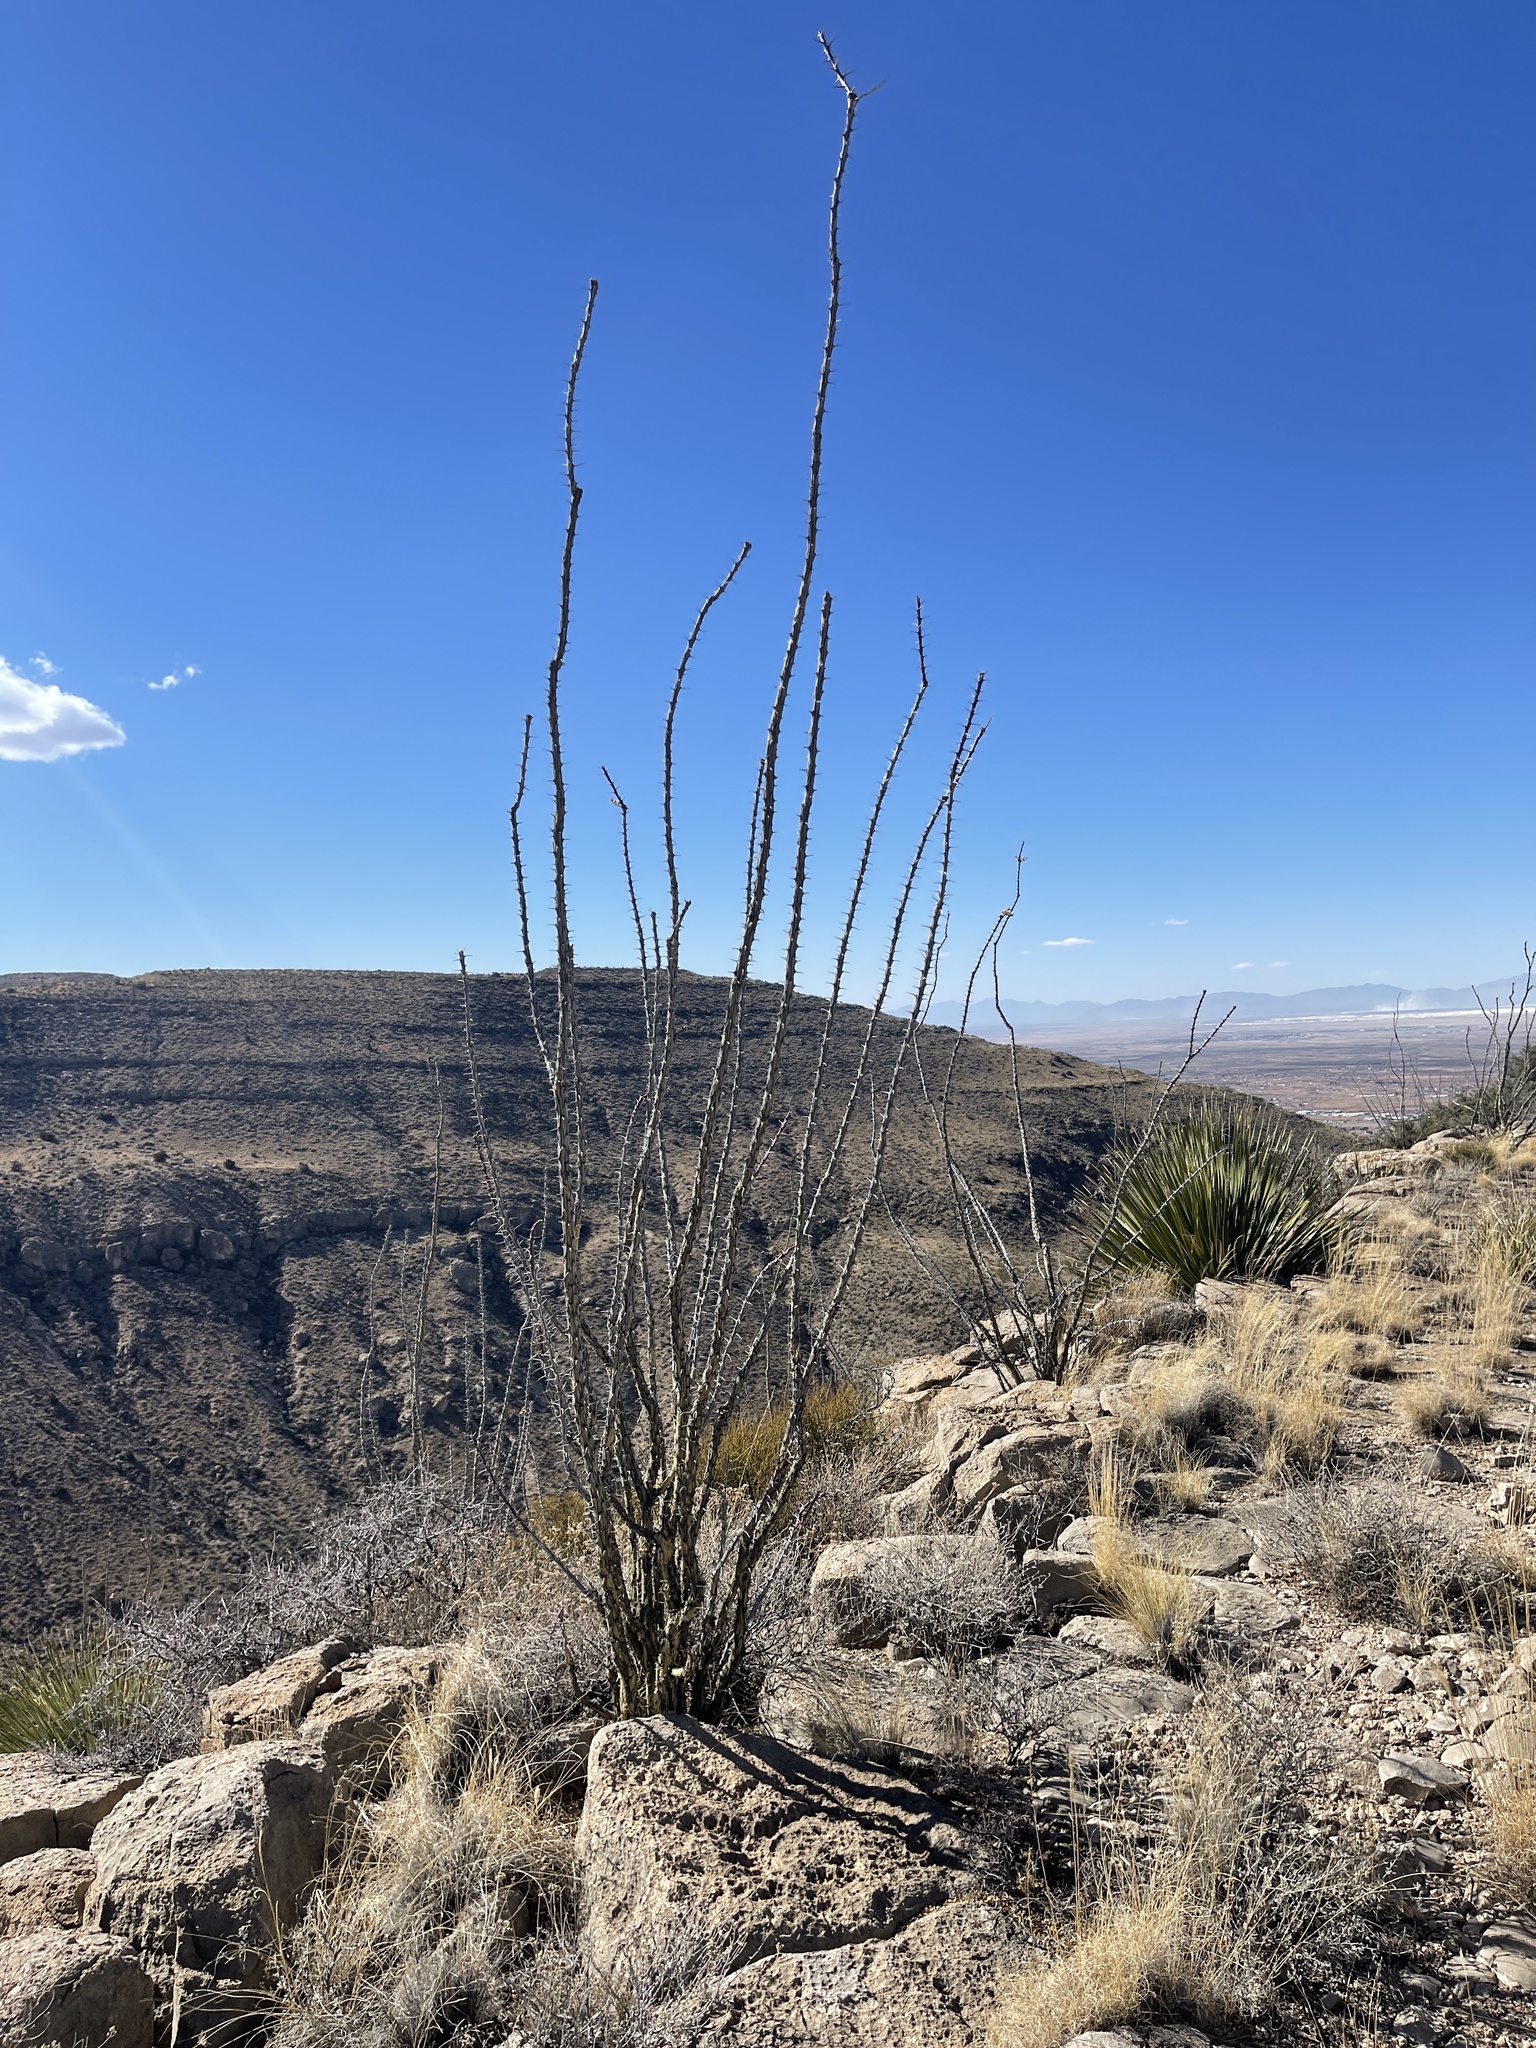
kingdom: Plantae
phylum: Tracheophyta
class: Magnoliopsida
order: Ericales
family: Fouquieriaceae
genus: Fouquieria
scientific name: Fouquieria splendens
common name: Vine-cactus
